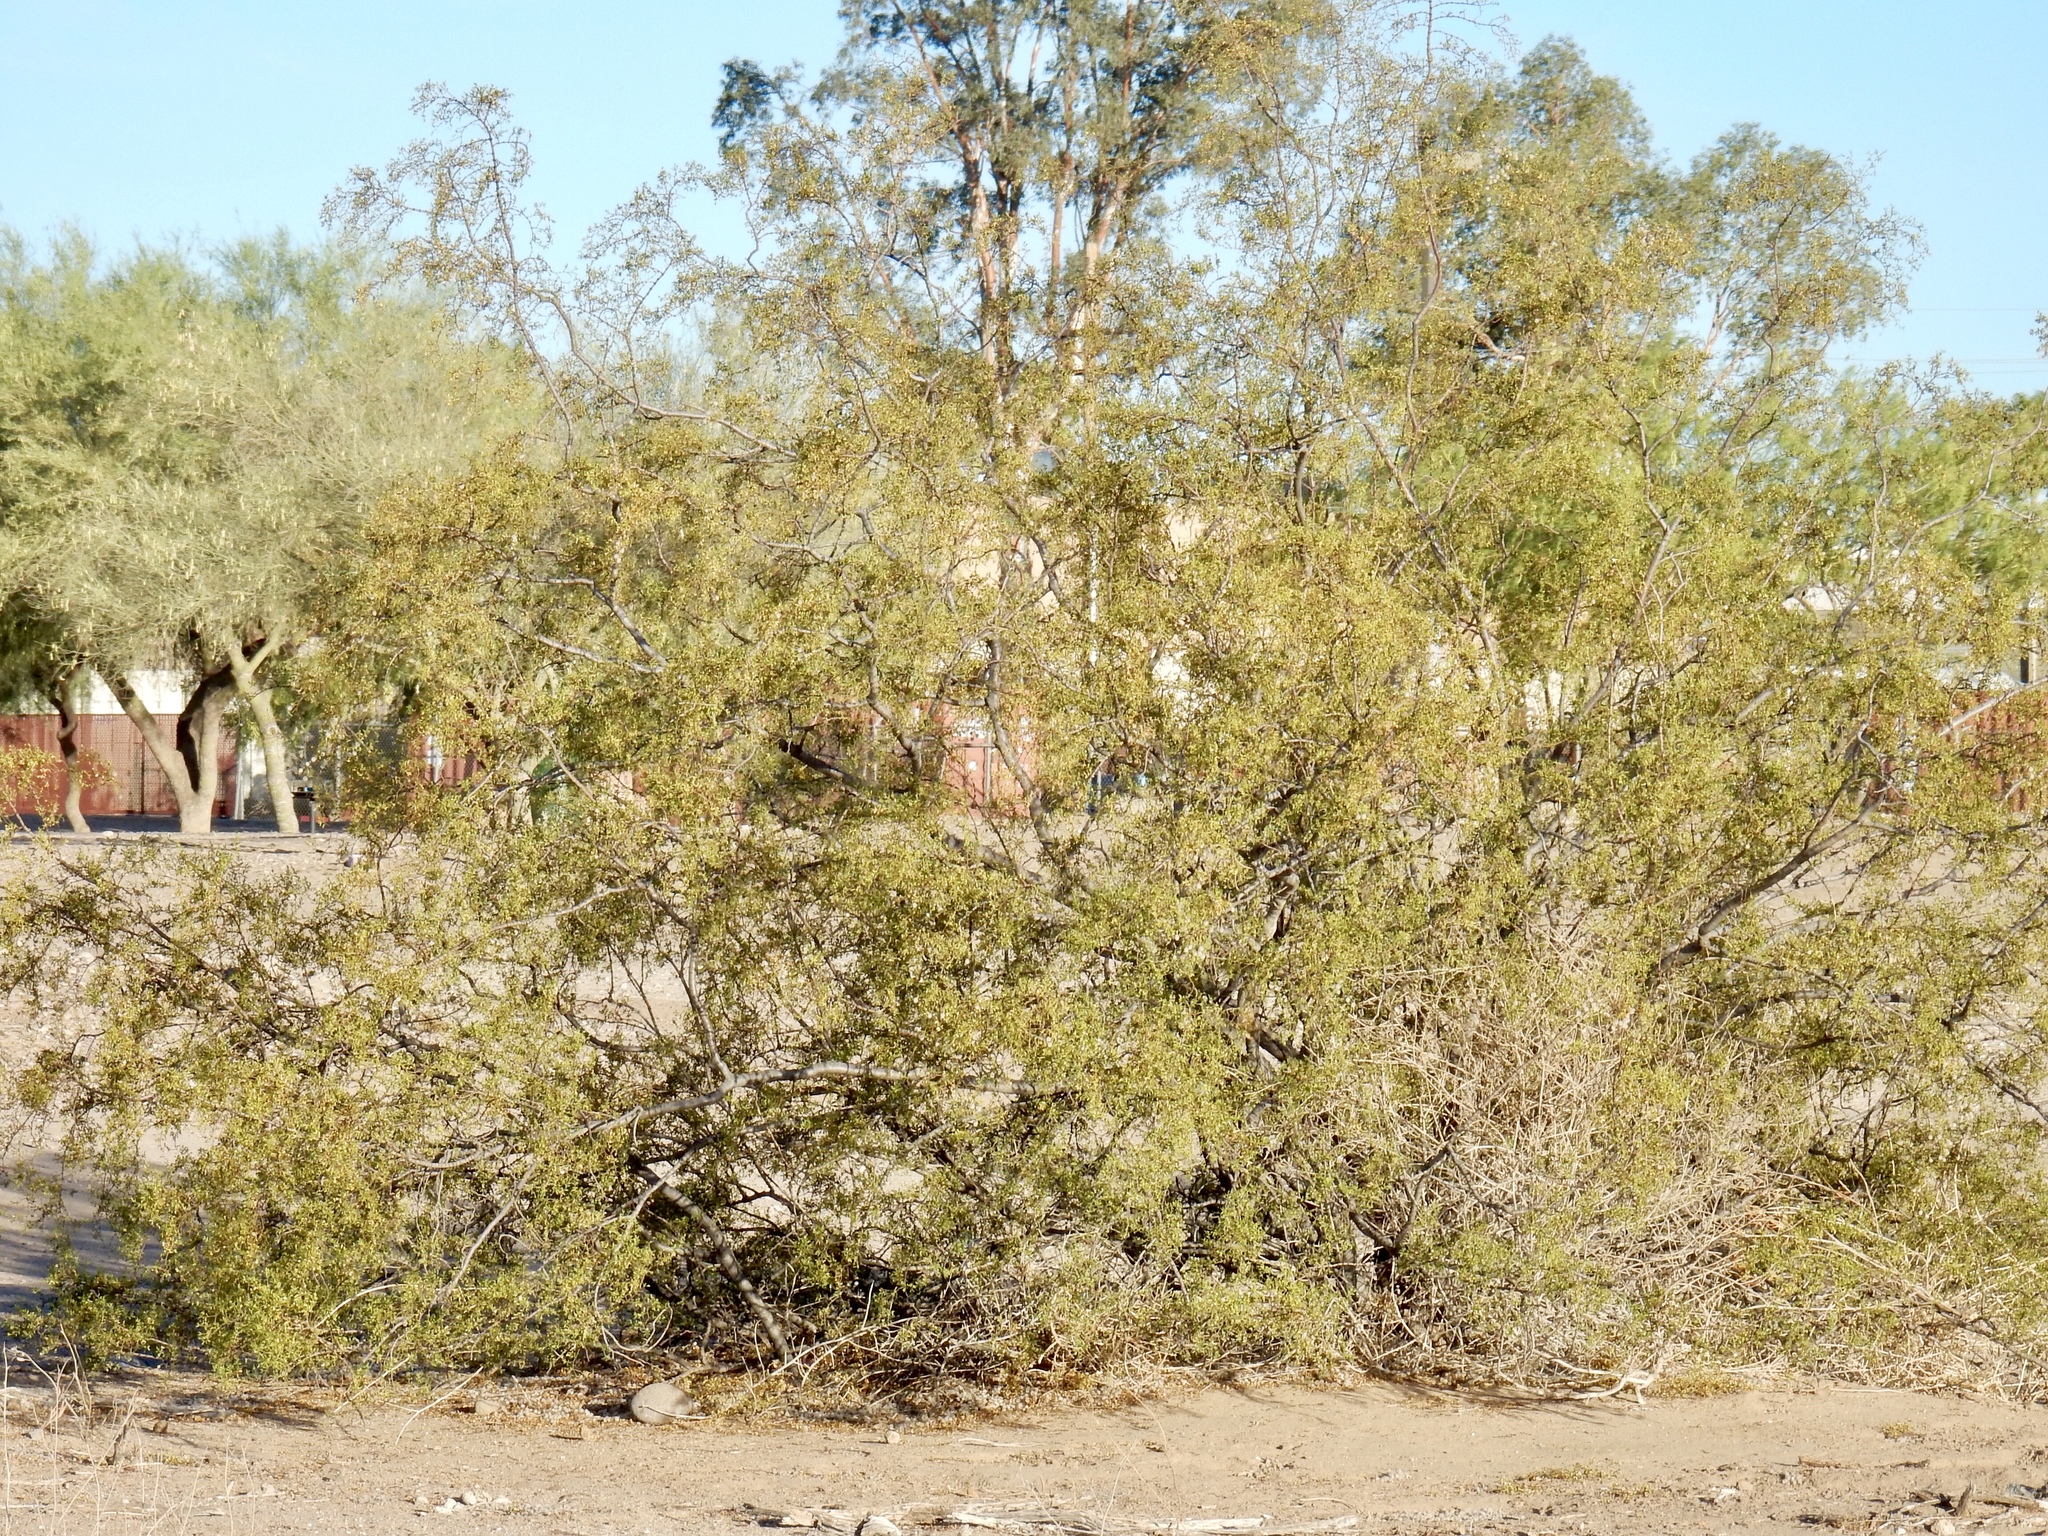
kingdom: Plantae
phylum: Tracheophyta
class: Magnoliopsida
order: Zygophyllales
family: Zygophyllaceae
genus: Larrea
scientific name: Larrea tridentata
